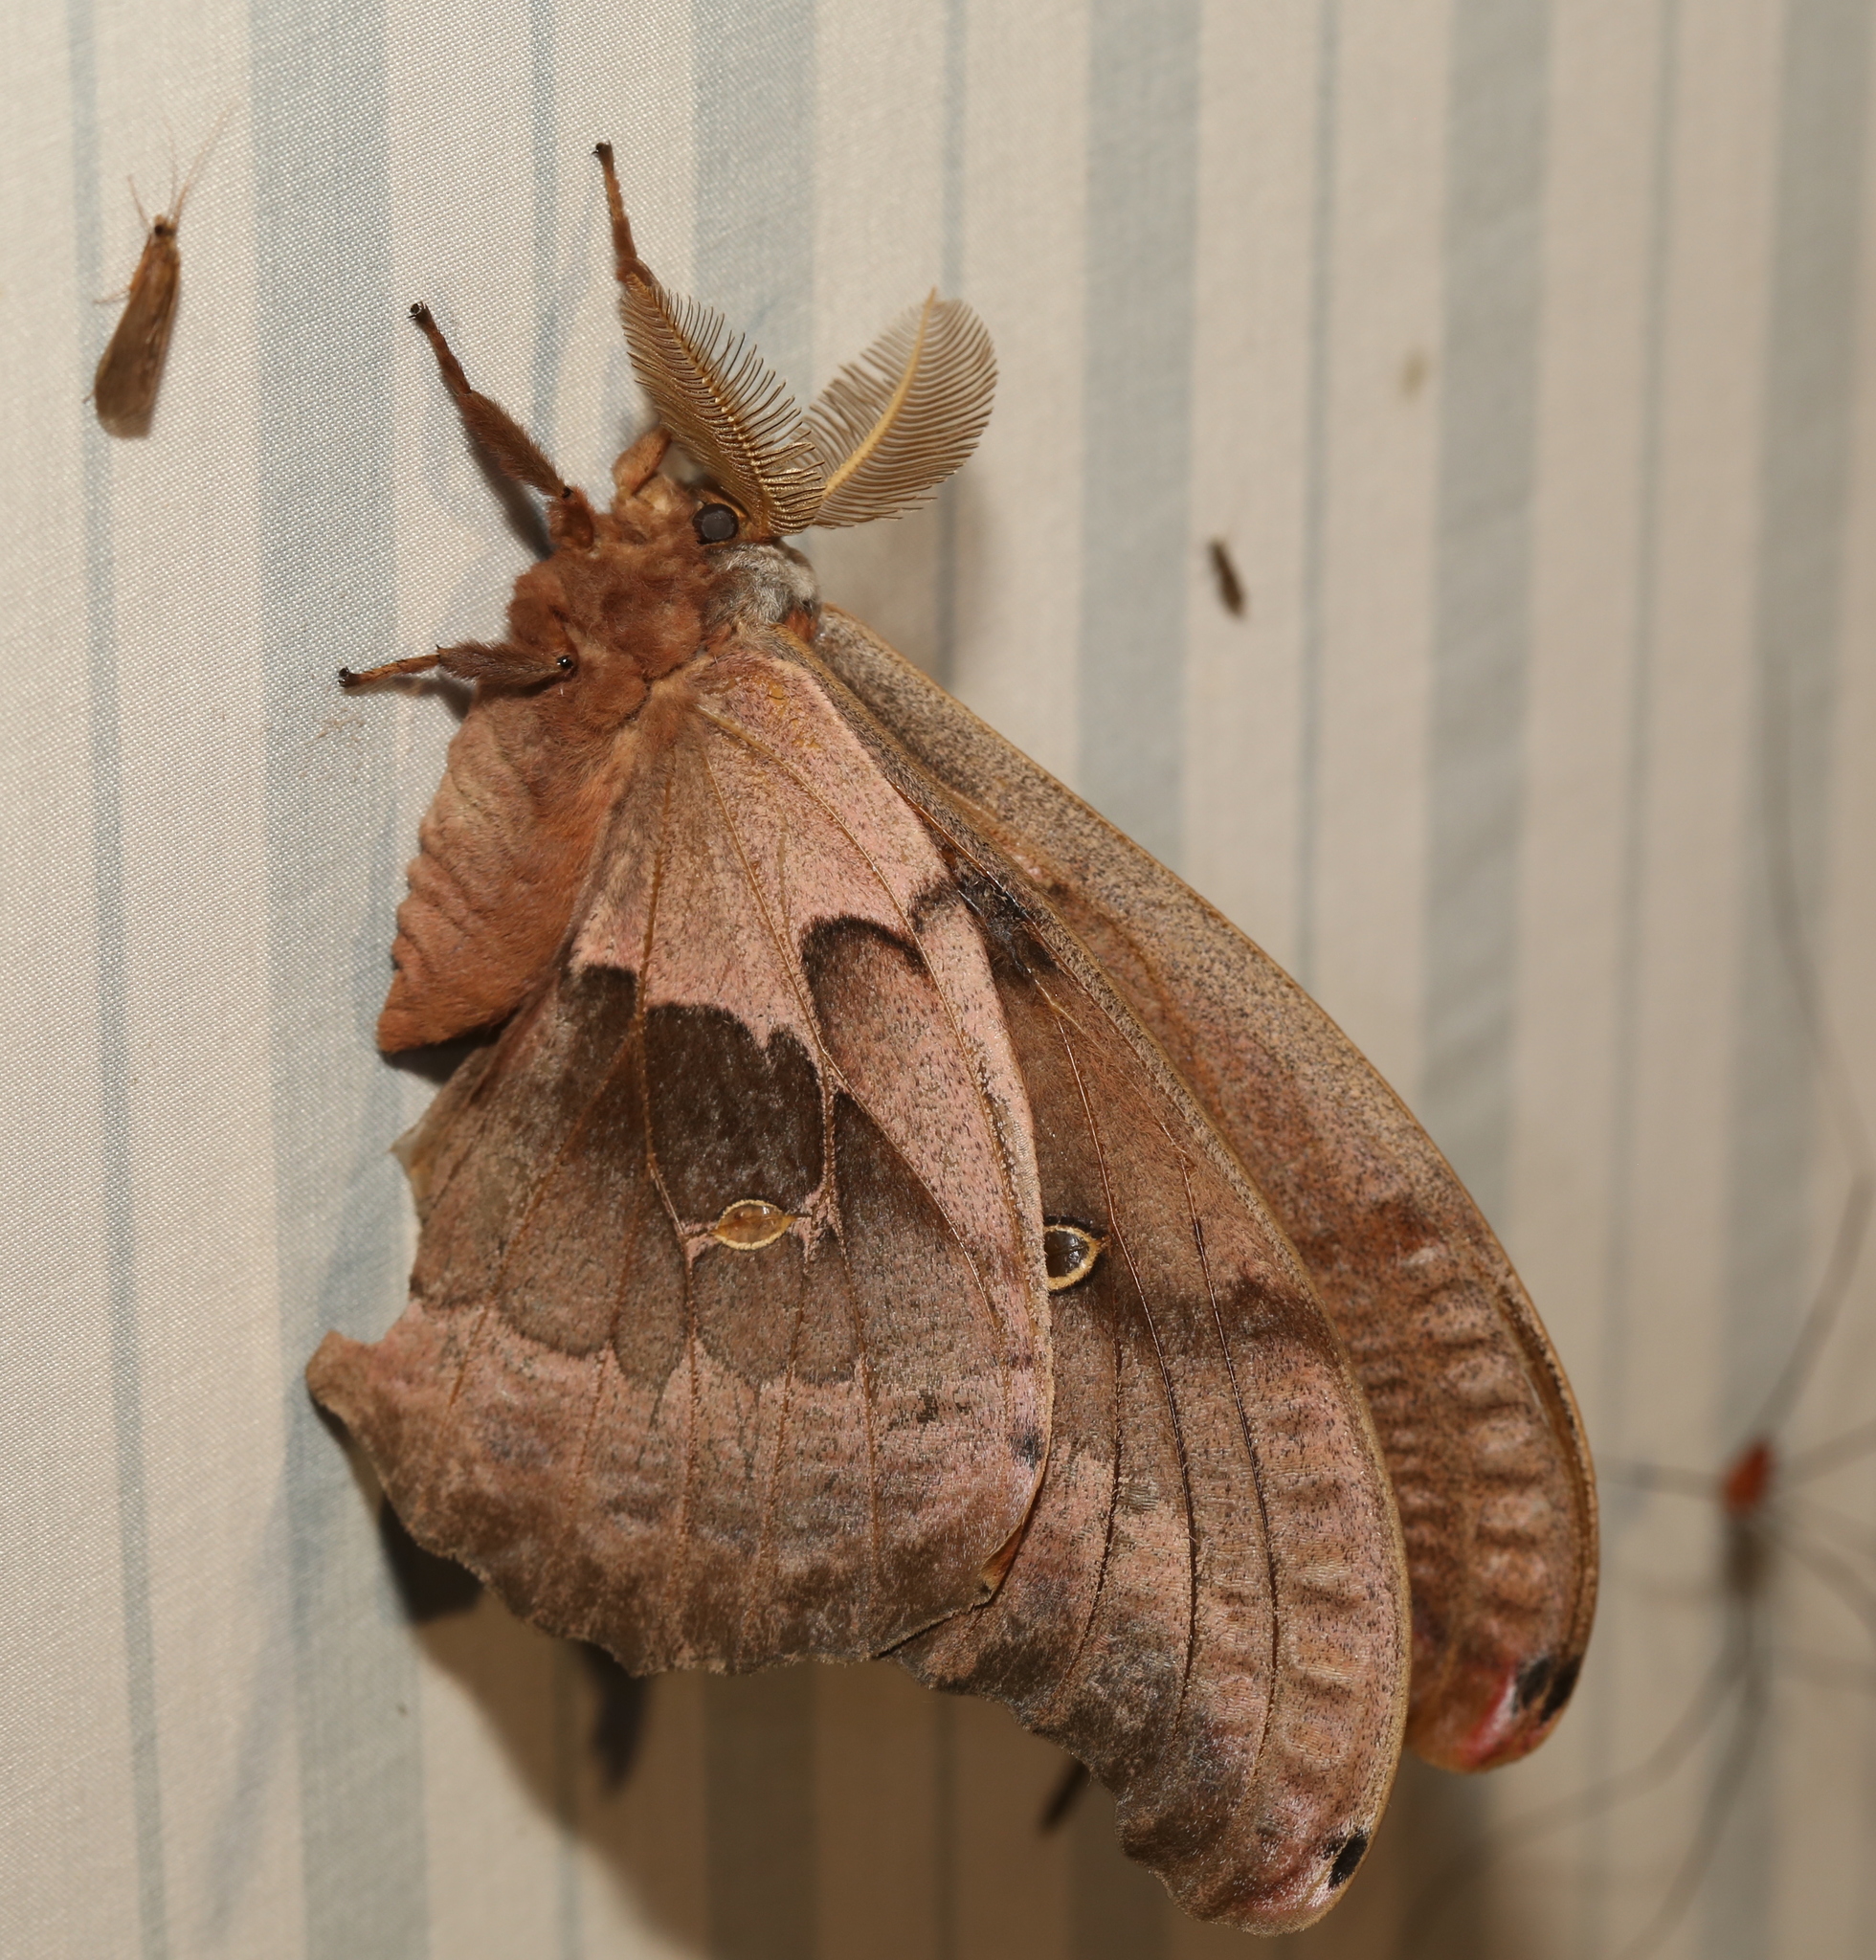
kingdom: Animalia
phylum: Arthropoda
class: Insecta
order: Lepidoptera
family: Saturniidae
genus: Antheraea
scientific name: Antheraea polyphemus
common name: Polyphemus moth
